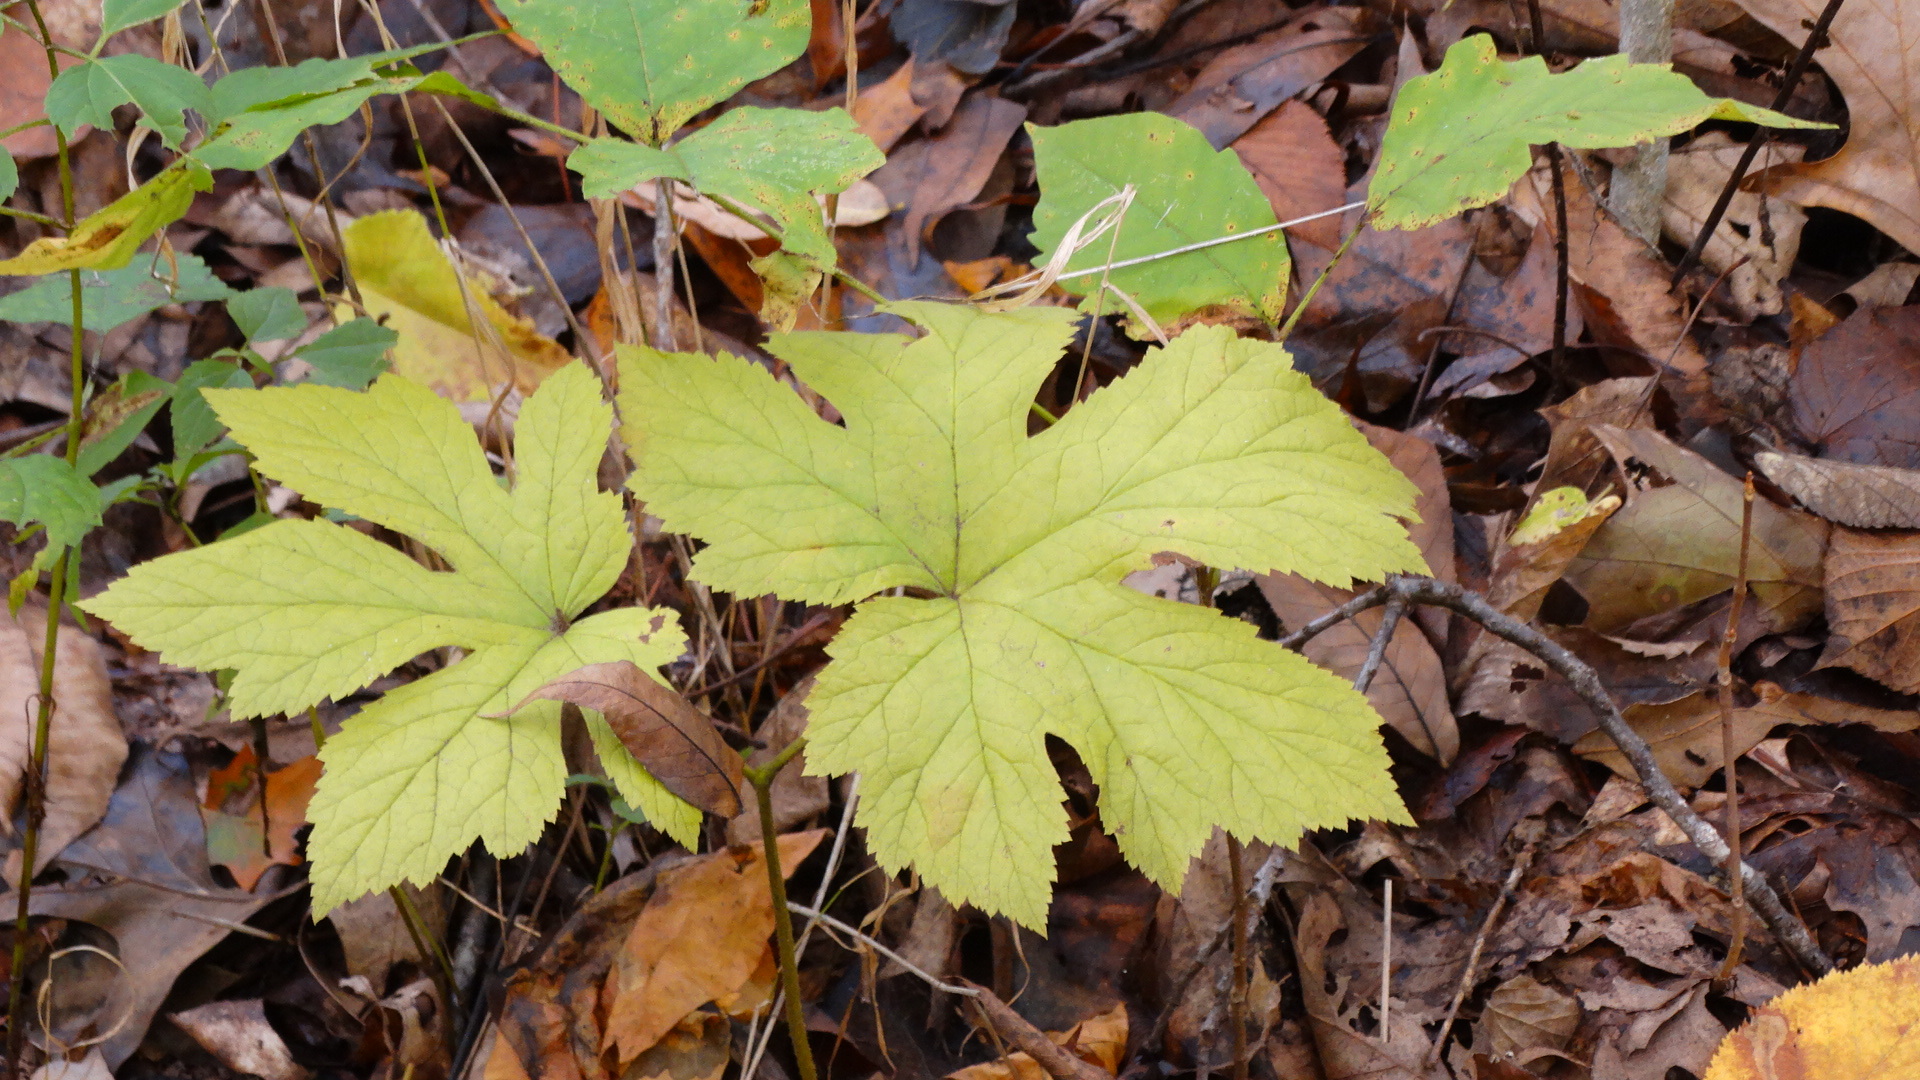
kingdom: Plantae
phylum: Tracheophyta
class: Magnoliopsida
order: Ranunculales
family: Ranunculaceae
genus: Hydrastis
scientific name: Hydrastis canadensis
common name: Goldenseal
